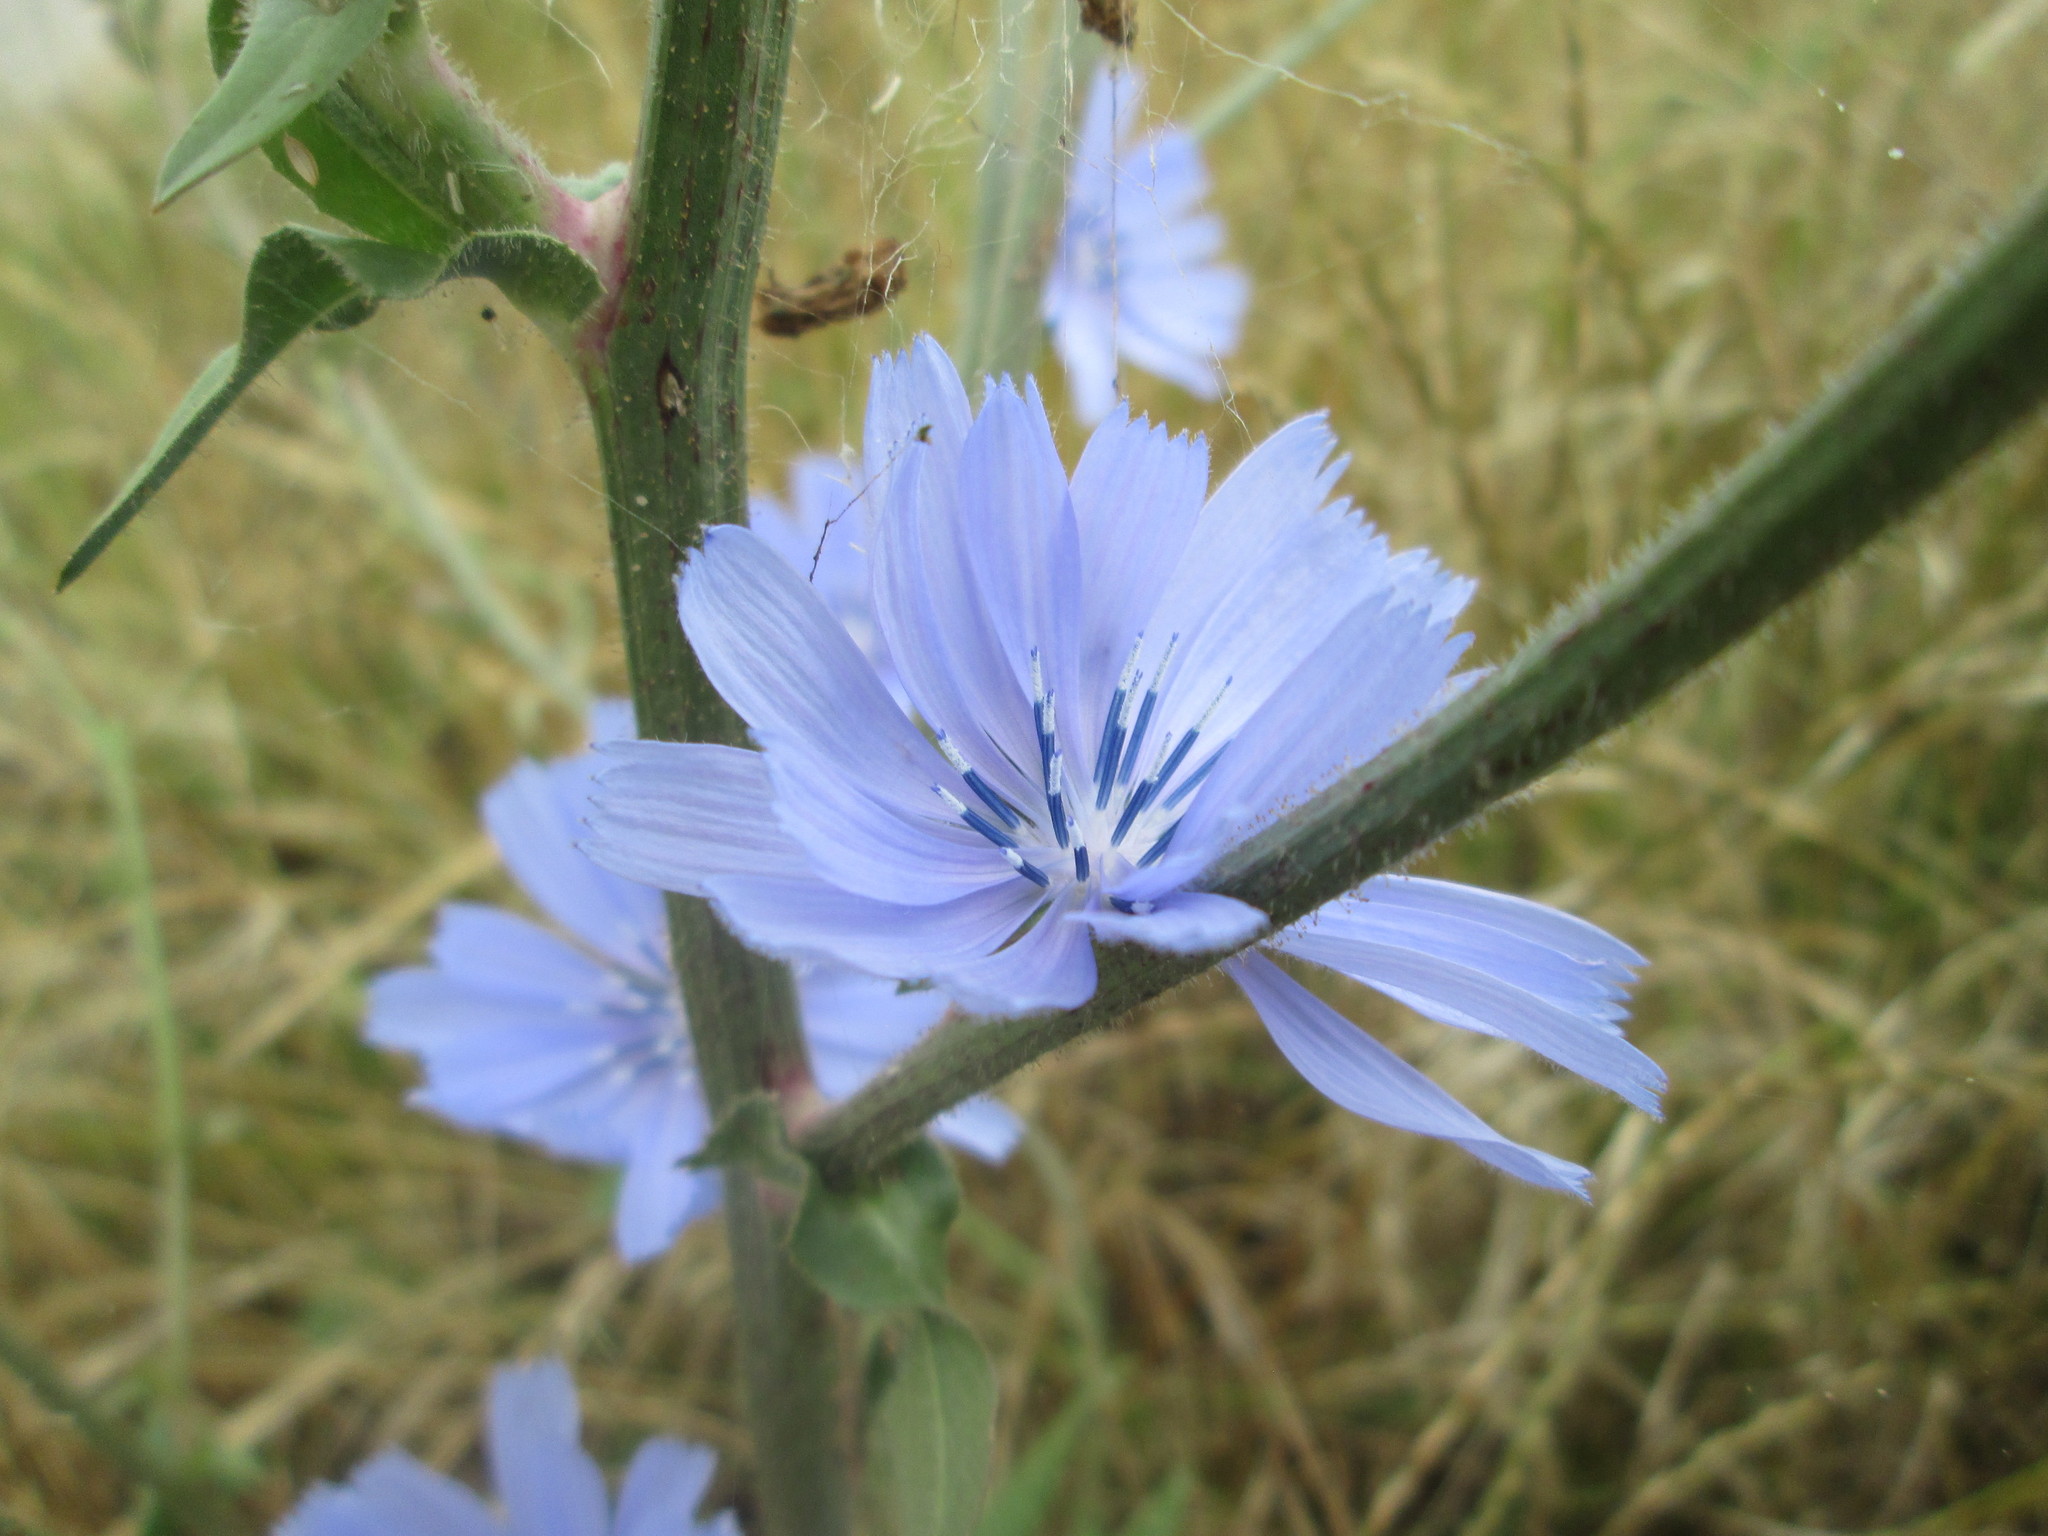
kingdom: Plantae
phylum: Tracheophyta
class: Magnoliopsida
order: Asterales
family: Asteraceae
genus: Cichorium
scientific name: Cichorium intybus
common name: Chicory
